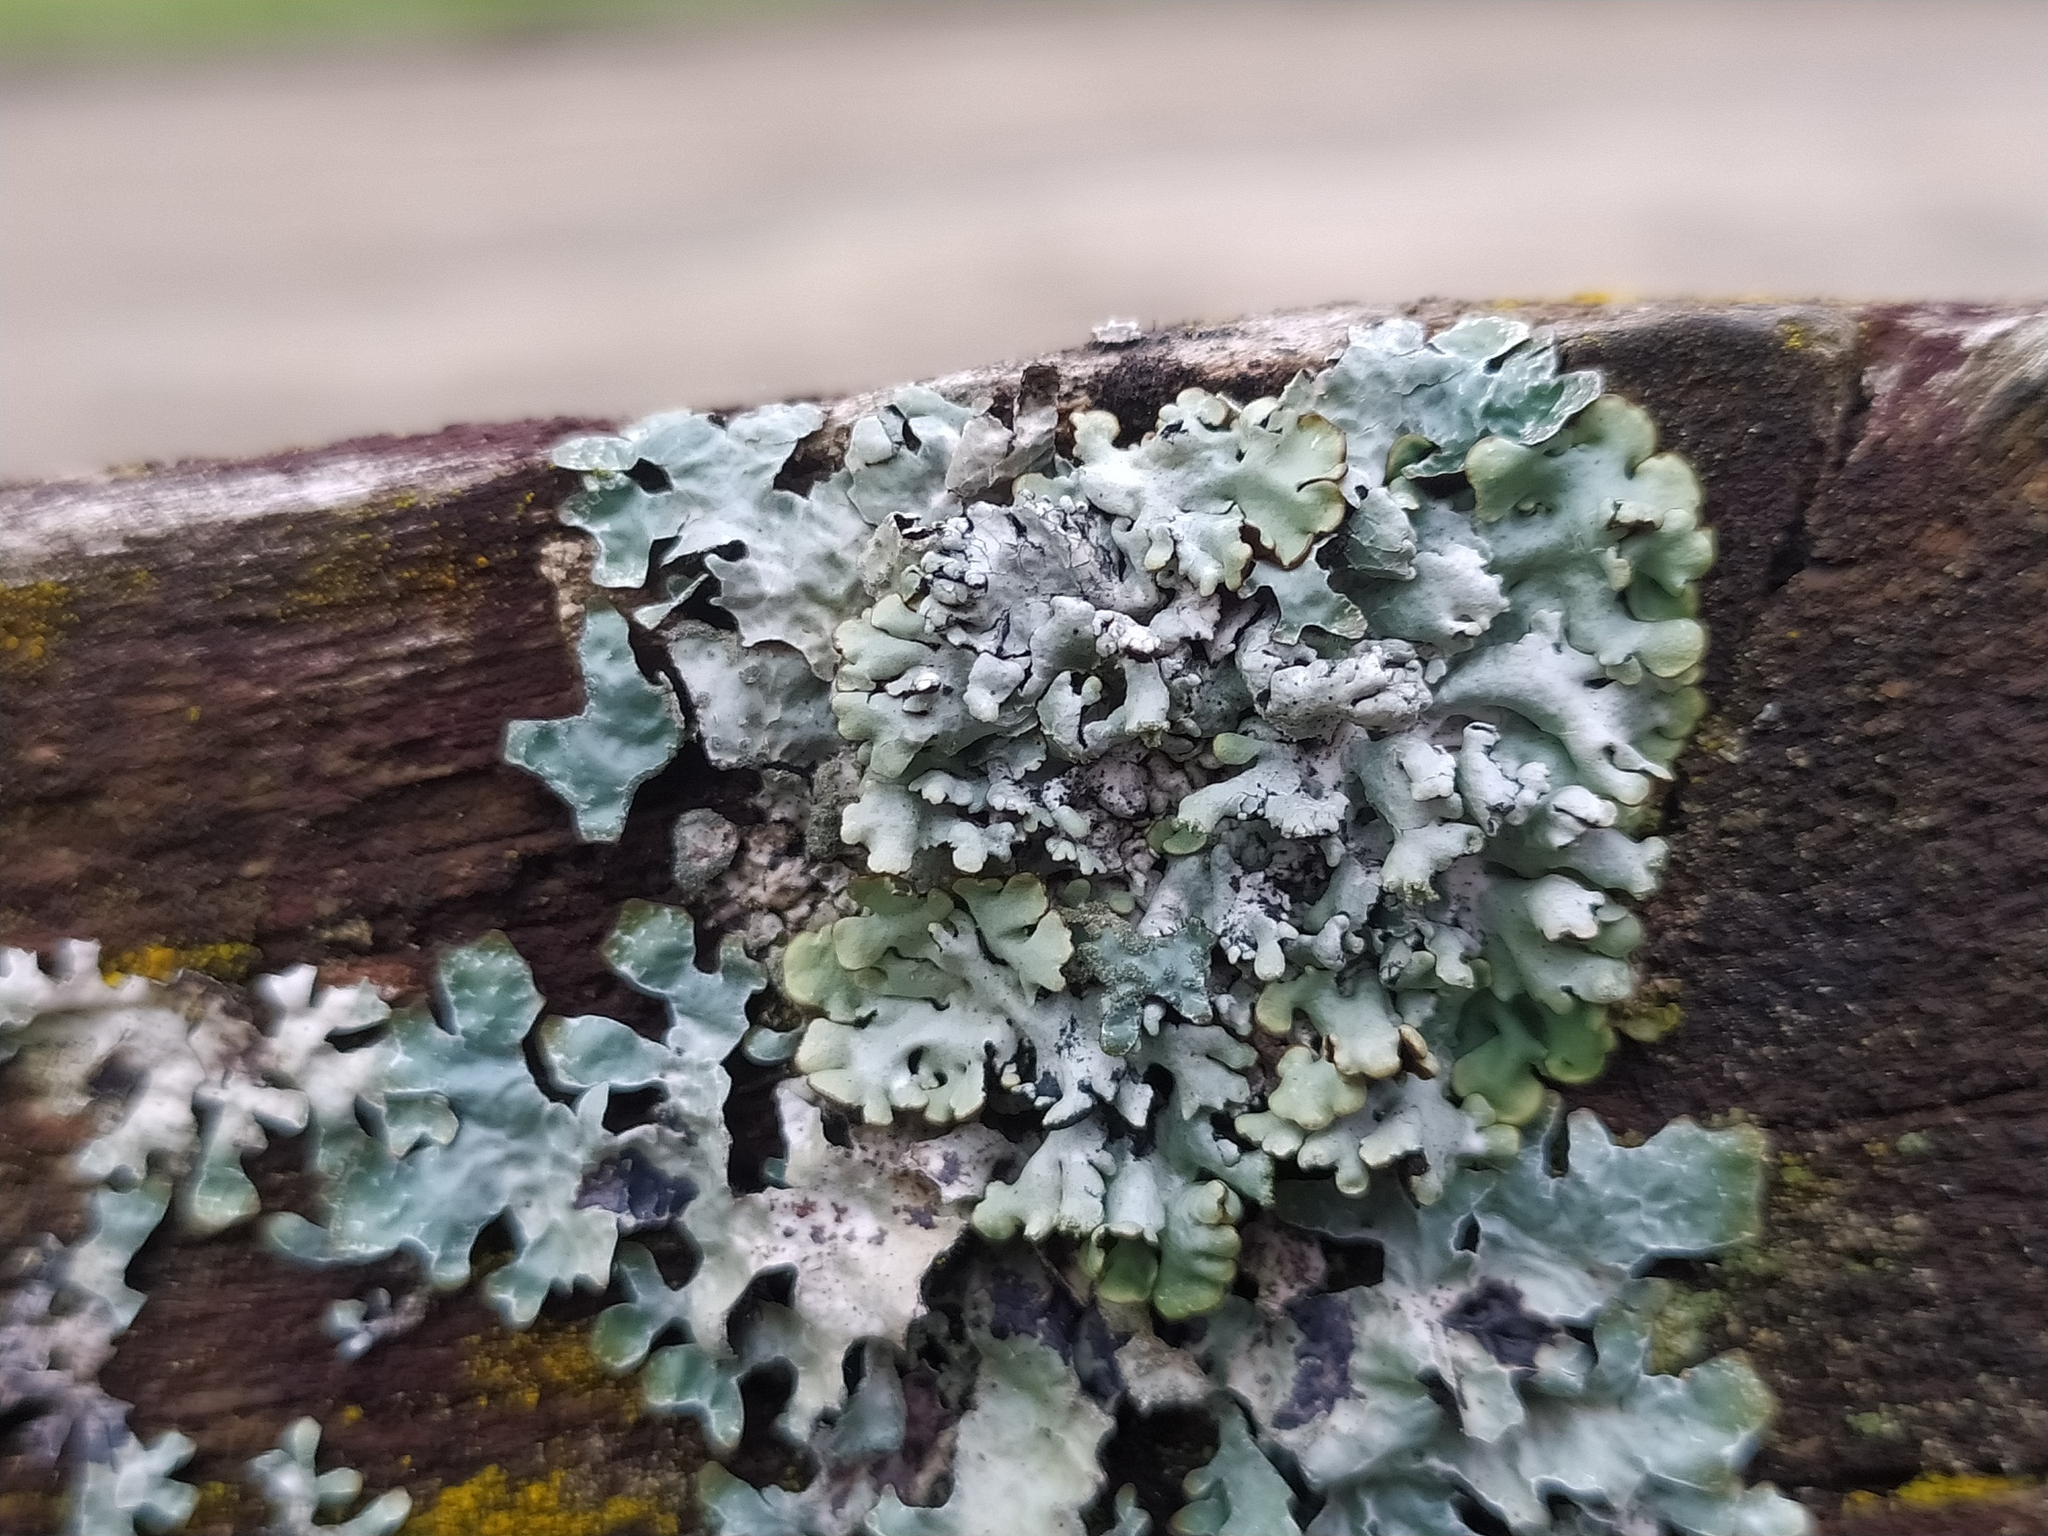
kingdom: Fungi
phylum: Ascomycota
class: Lecanoromycetes
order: Lecanorales
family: Parmeliaceae
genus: Hypogymnia
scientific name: Hypogymnia physodes
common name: Dark crottle
